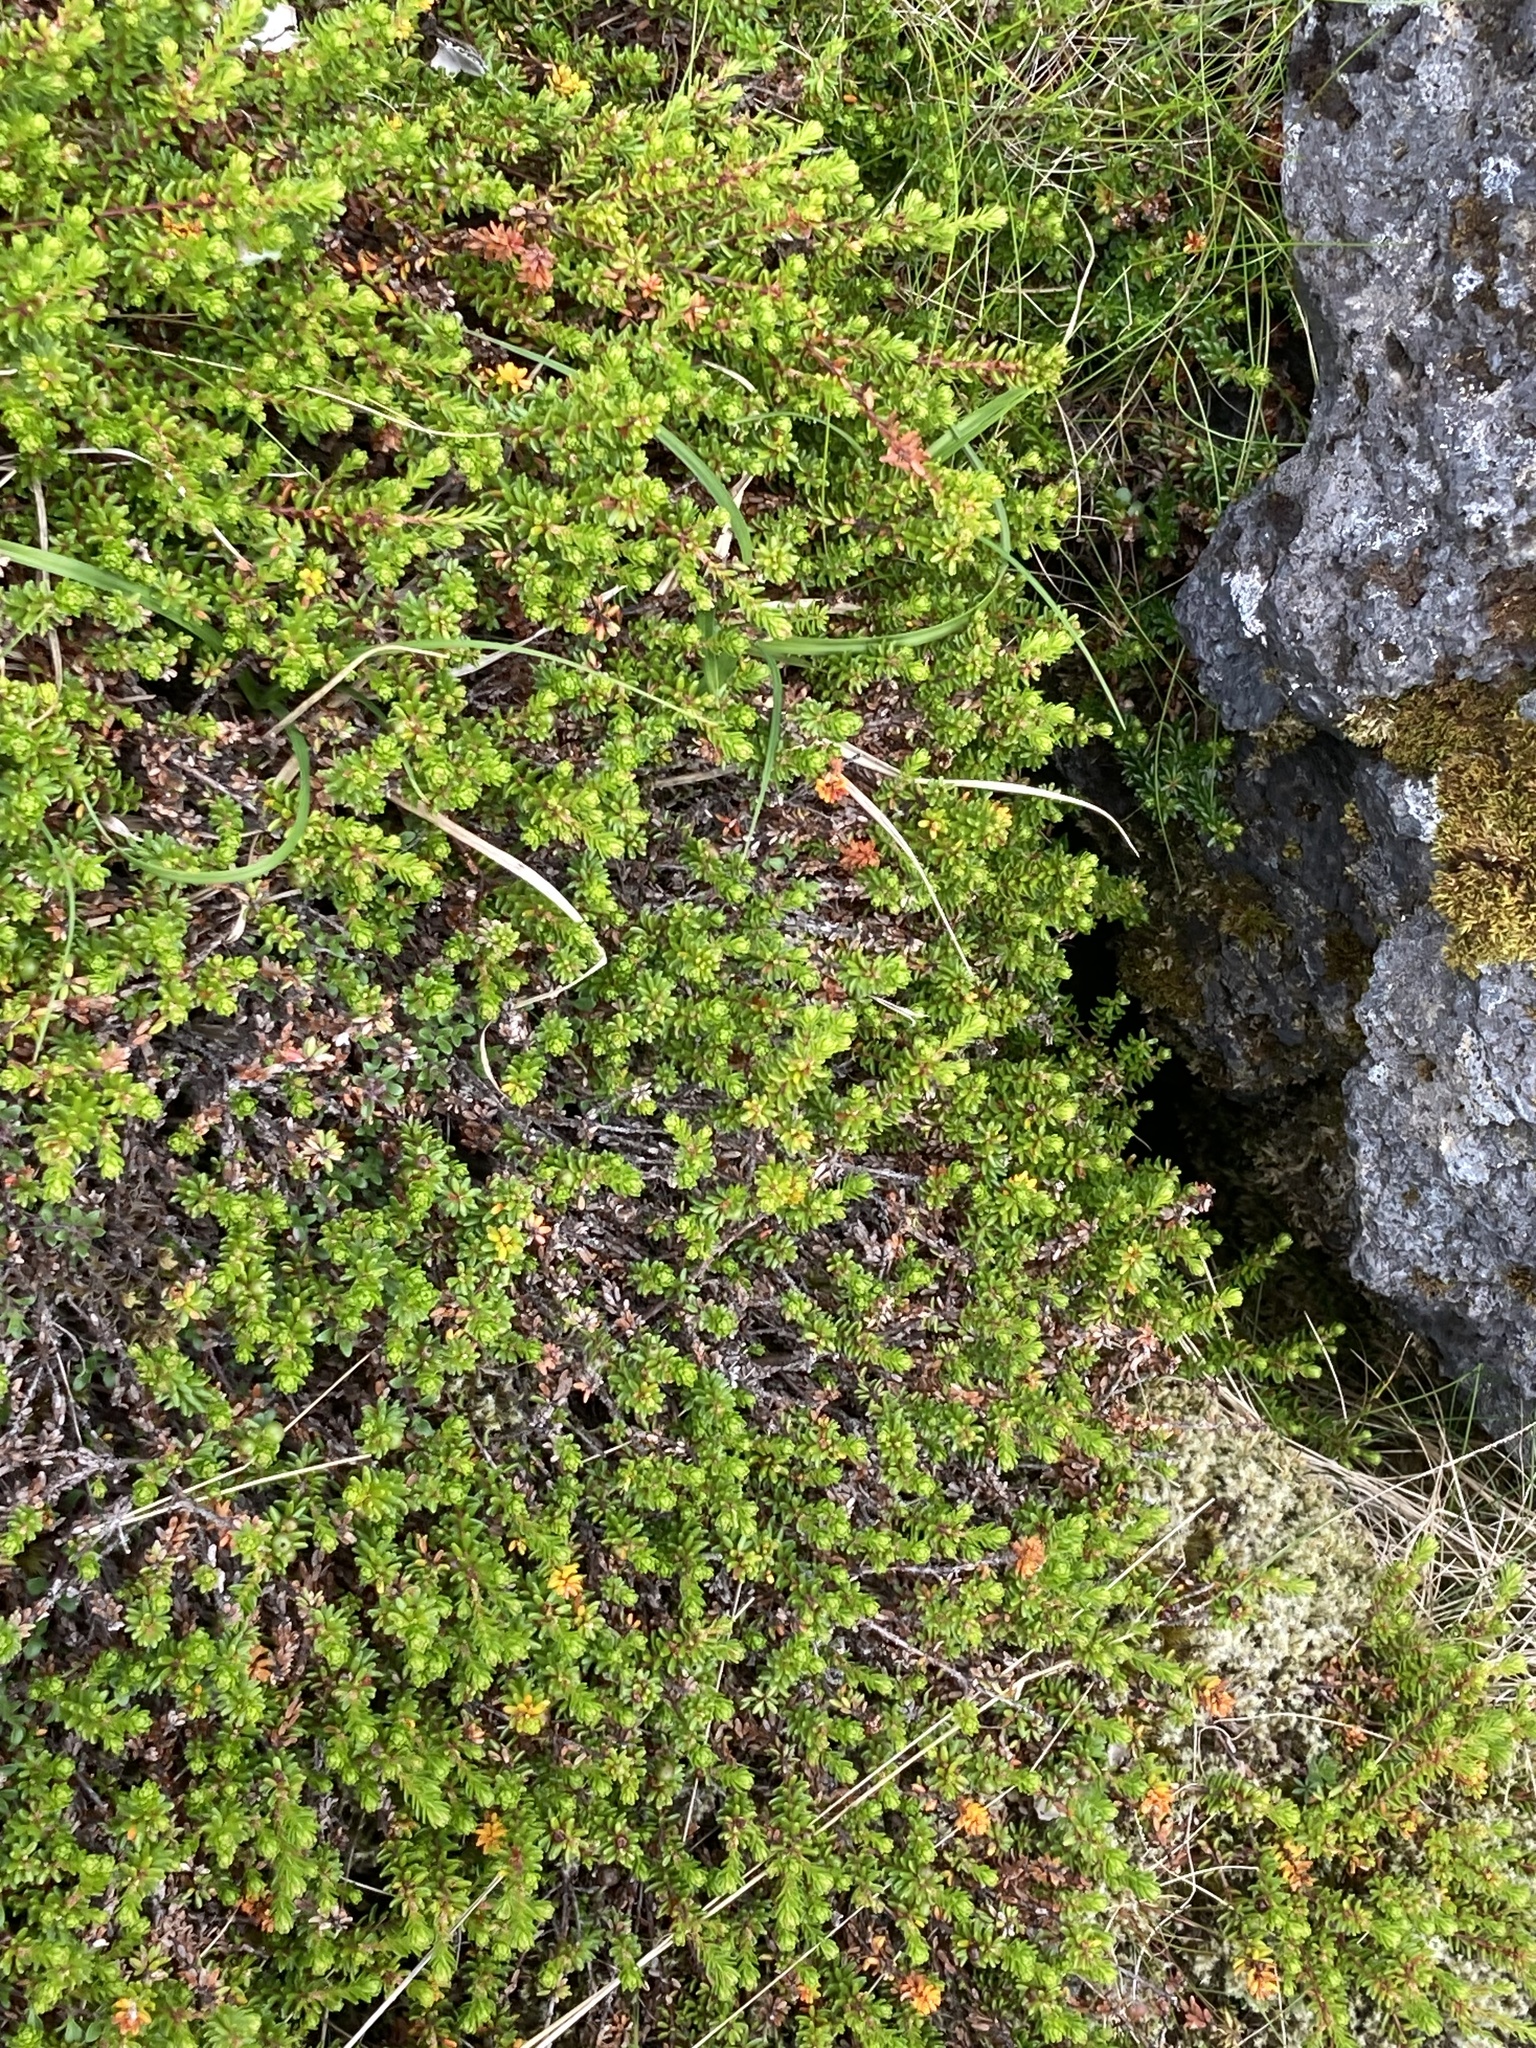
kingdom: Plantae
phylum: Tracheophyta
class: Magnoliopsida
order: Ericales
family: Ericaceae
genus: Empetrum
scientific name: Empetrum nigrum
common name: Black crowberry
